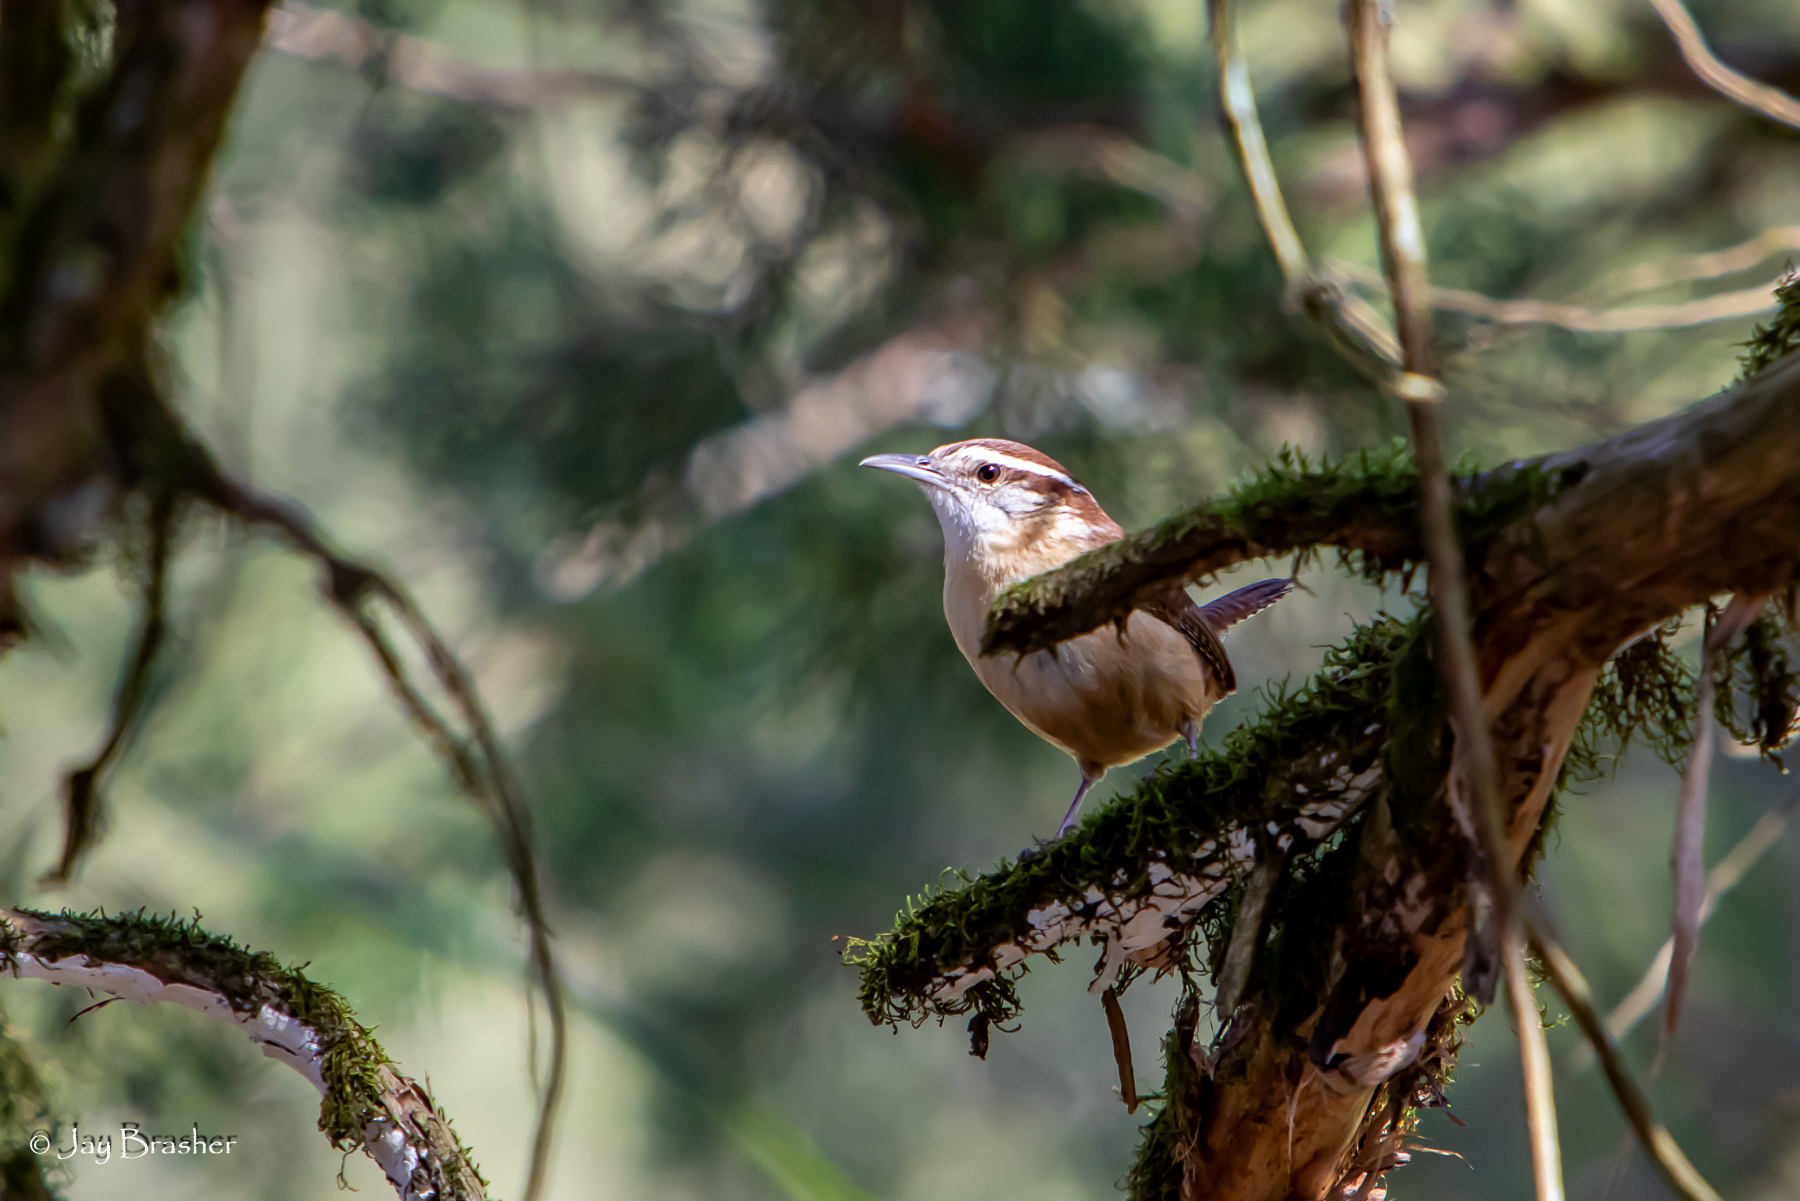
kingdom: Animalia
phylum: Chordata
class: Aves
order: Passeriformes
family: Troglodytidae
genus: Thryothorus
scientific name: Thryothorus ludovicianus
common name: Carolina wren
